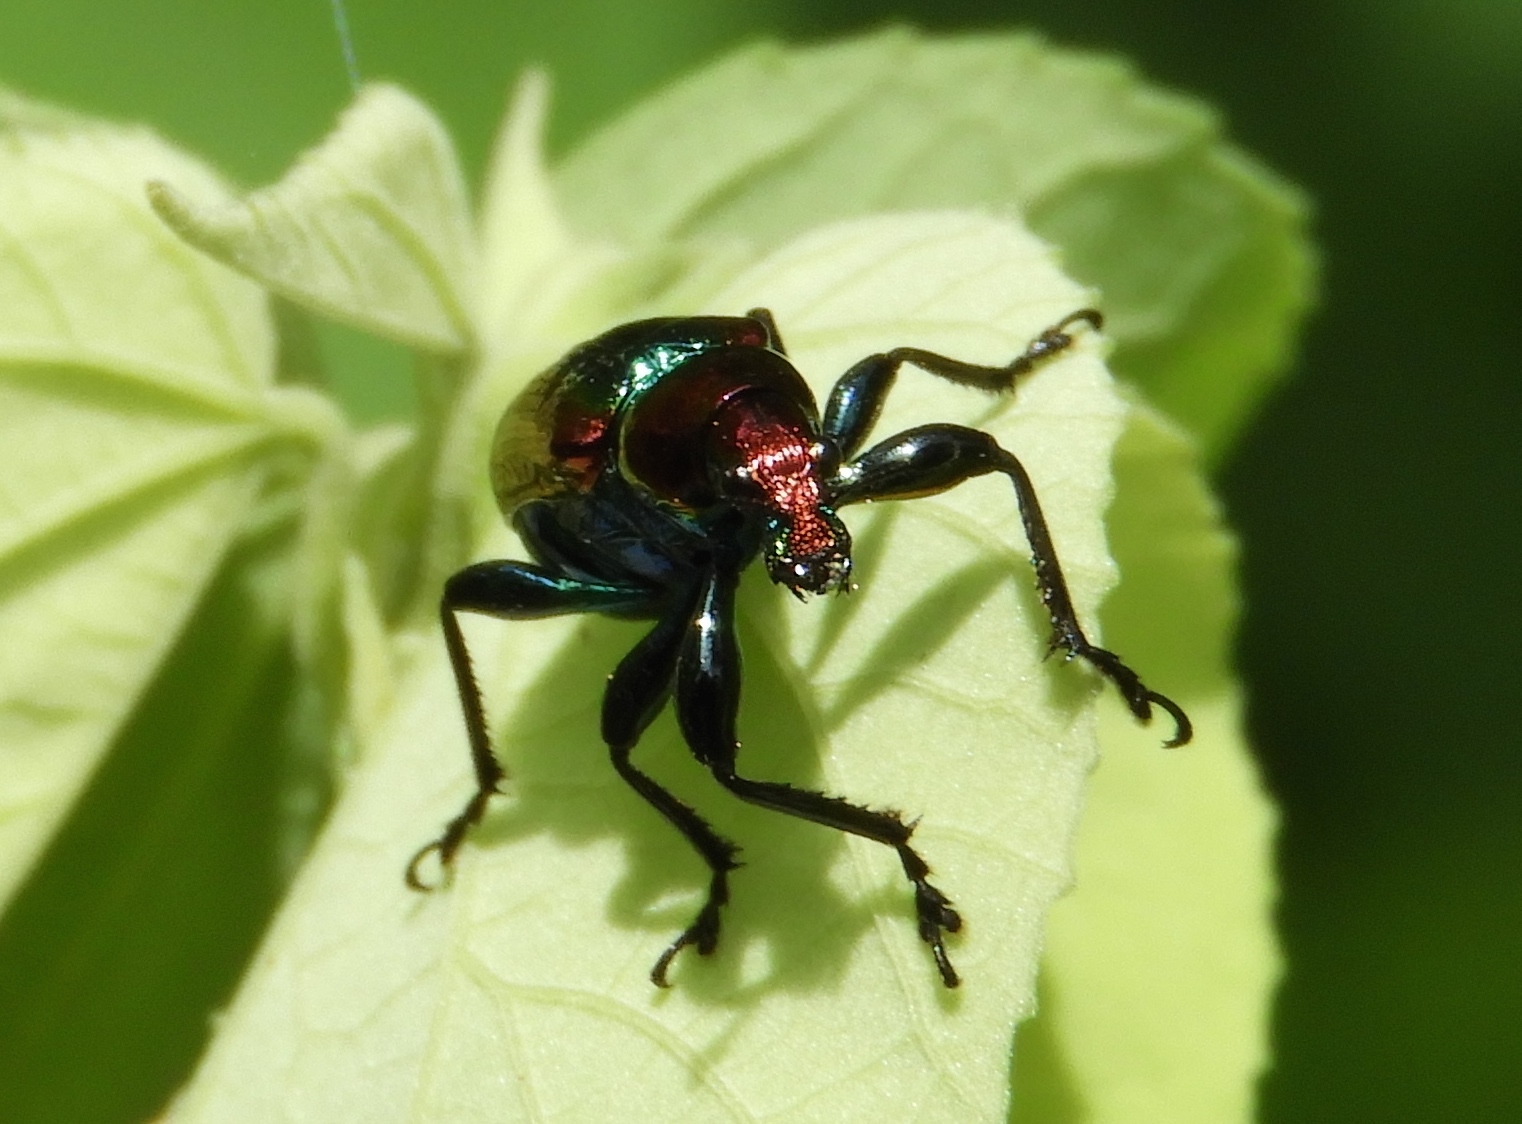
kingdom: Animalia
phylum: Arthropoda
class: Insecta
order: Coleoptera
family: Attelabidae
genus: Pilolabus
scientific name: Pilolabus viridans
